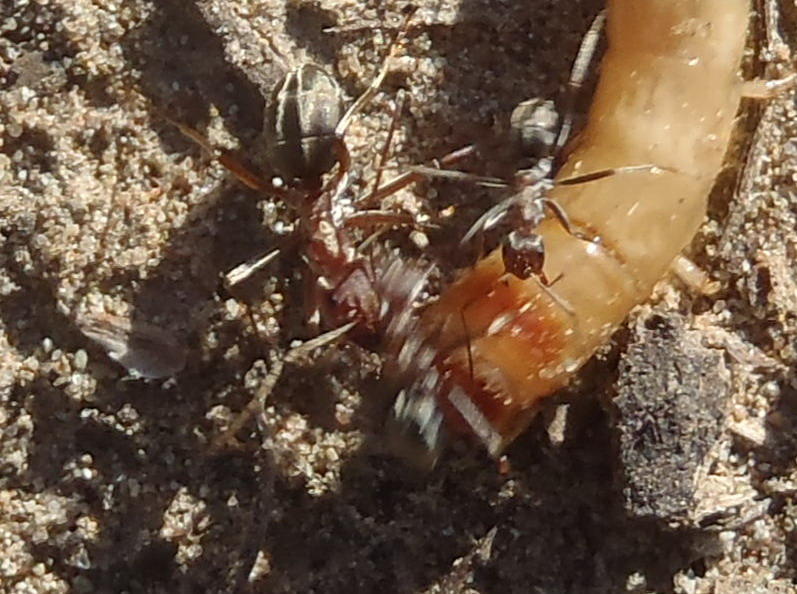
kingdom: Animalia
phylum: Arthropoda
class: Insecta
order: Hymenoptera
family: Formicidae
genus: Anoplolepis
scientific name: Anoplolepis custodiens
